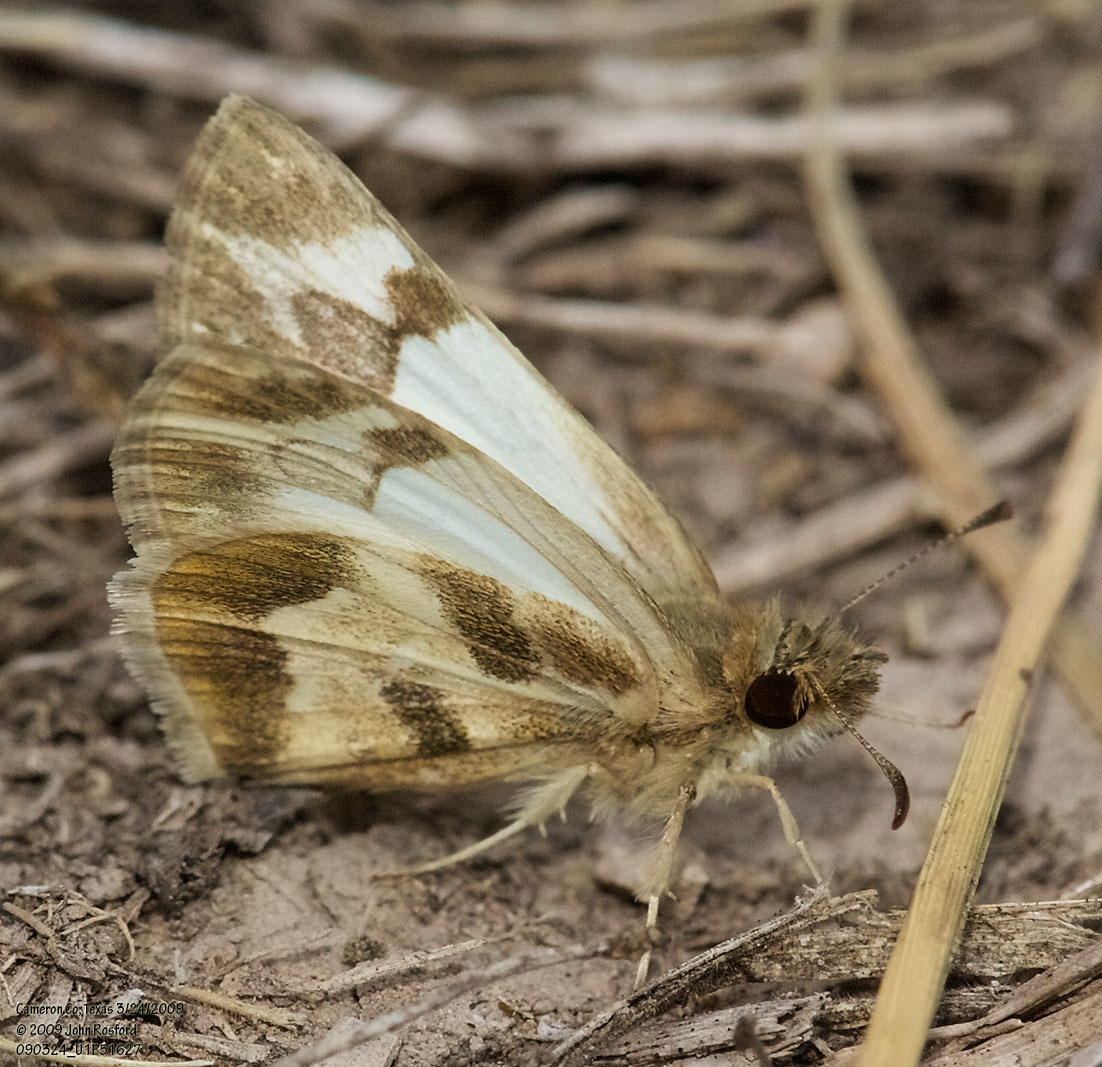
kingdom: Animalia
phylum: Arthropoda
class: Insecta
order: Lepidoptera
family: Hesperiidae
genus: Heliopetes
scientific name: Heliopetes macaira
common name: Turk's-cap white-skipper
